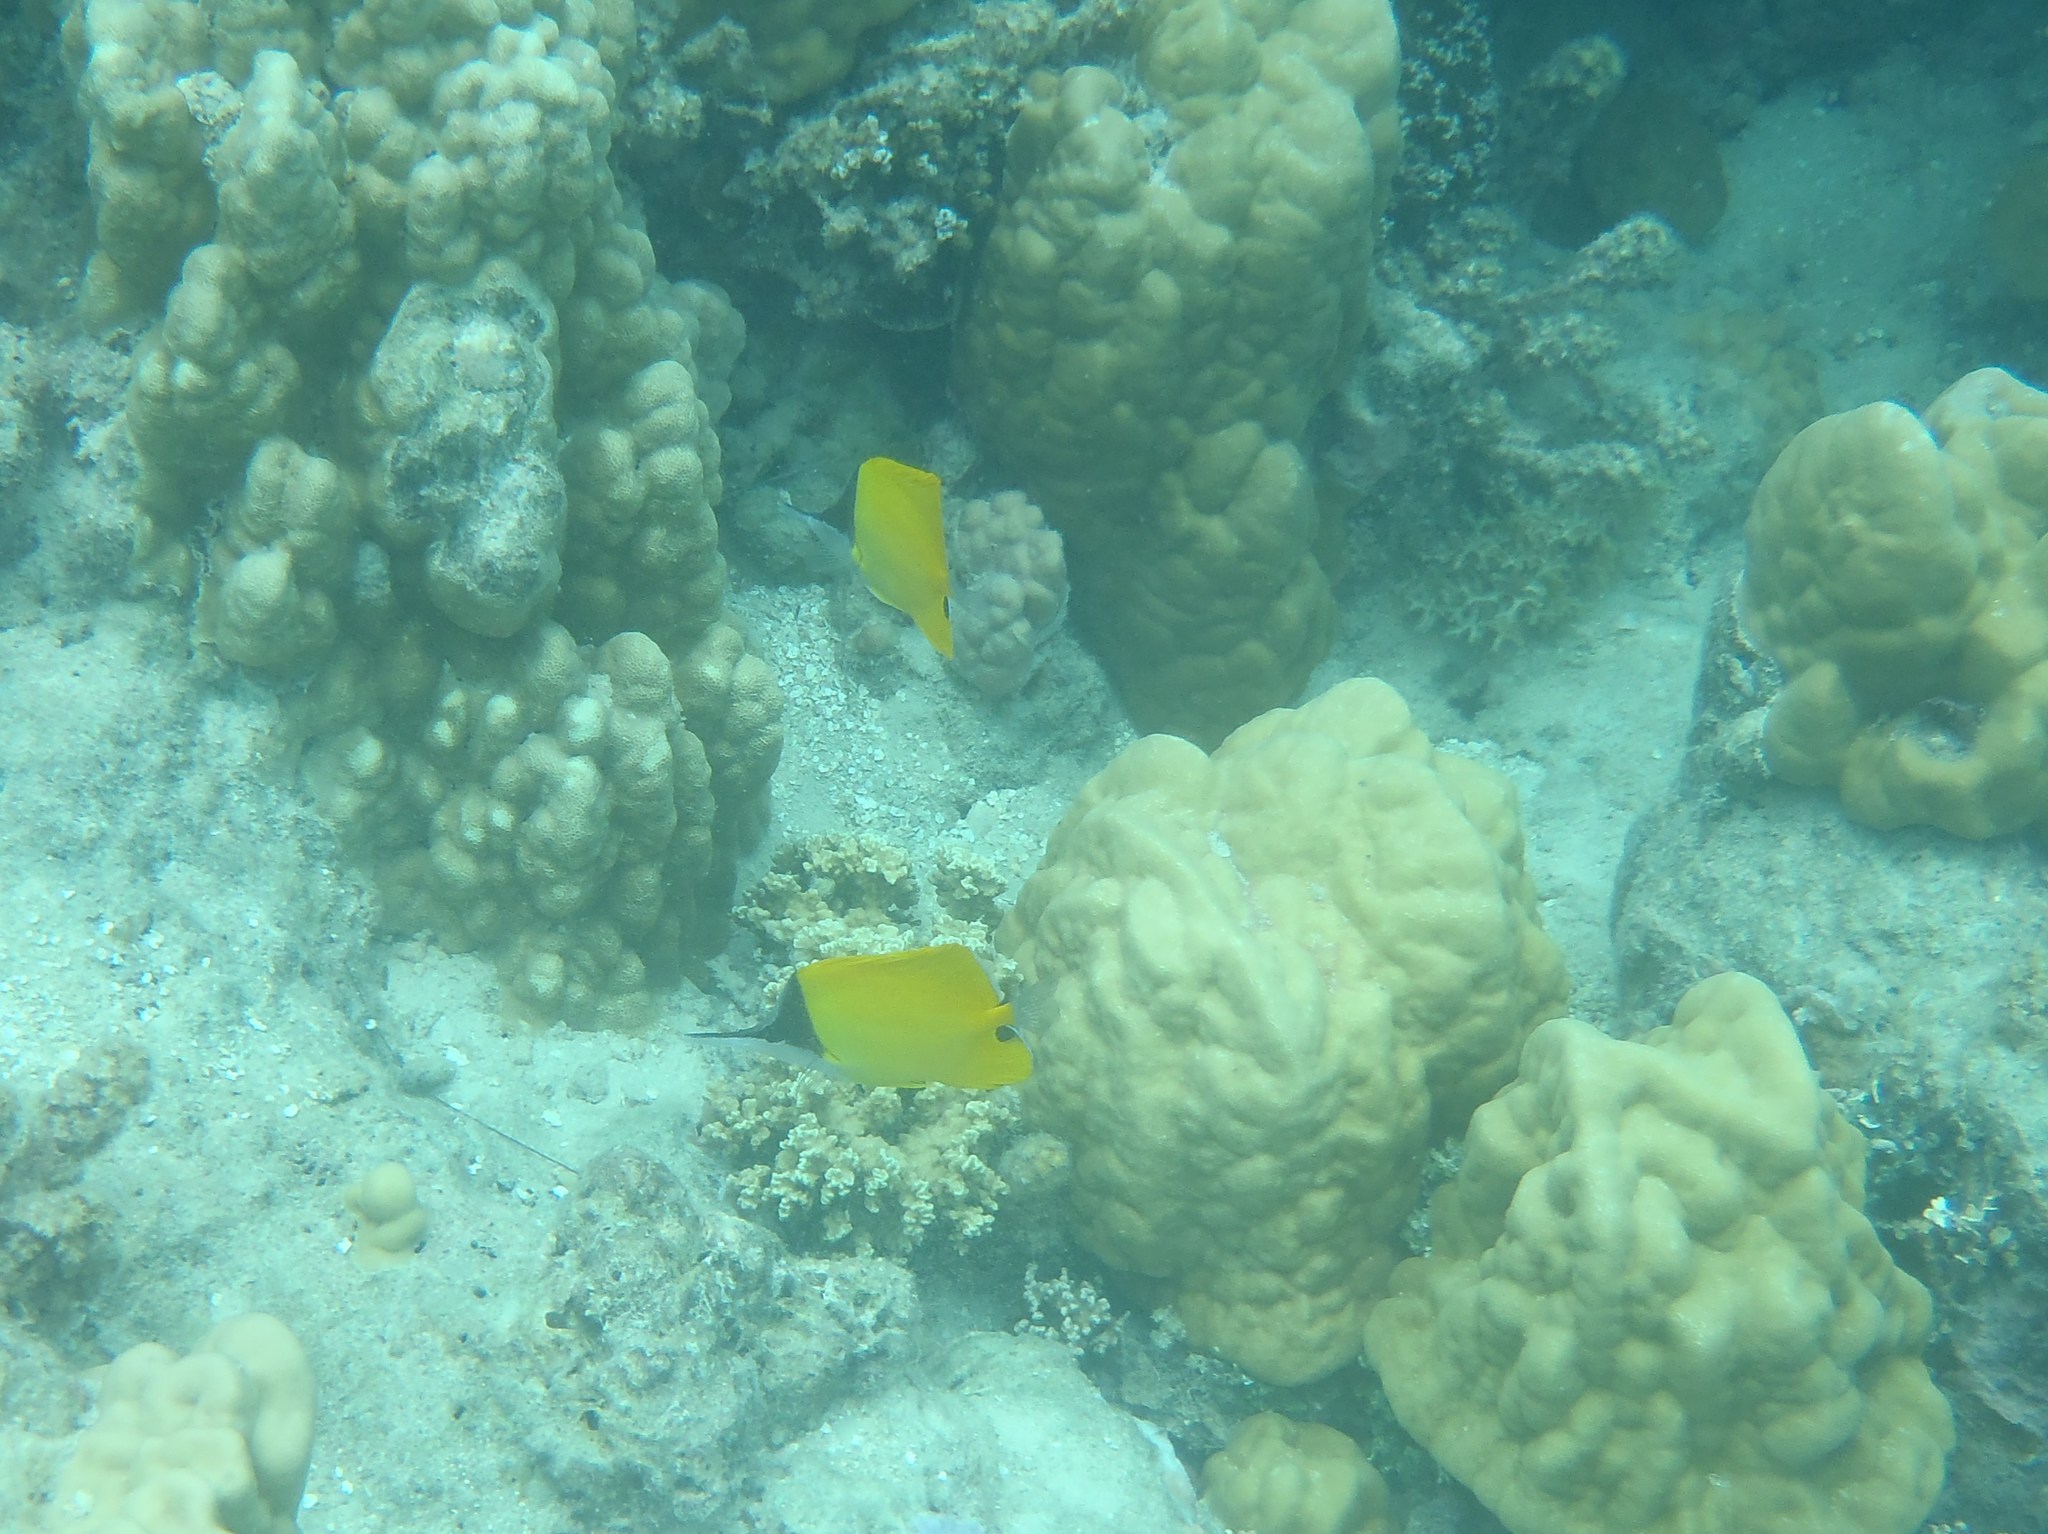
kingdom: Animalia
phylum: Chordata
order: Perciformes
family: Chaetodontidae
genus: Forcipiger
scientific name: Forcipiger flavissimus
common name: Forcepsfish
